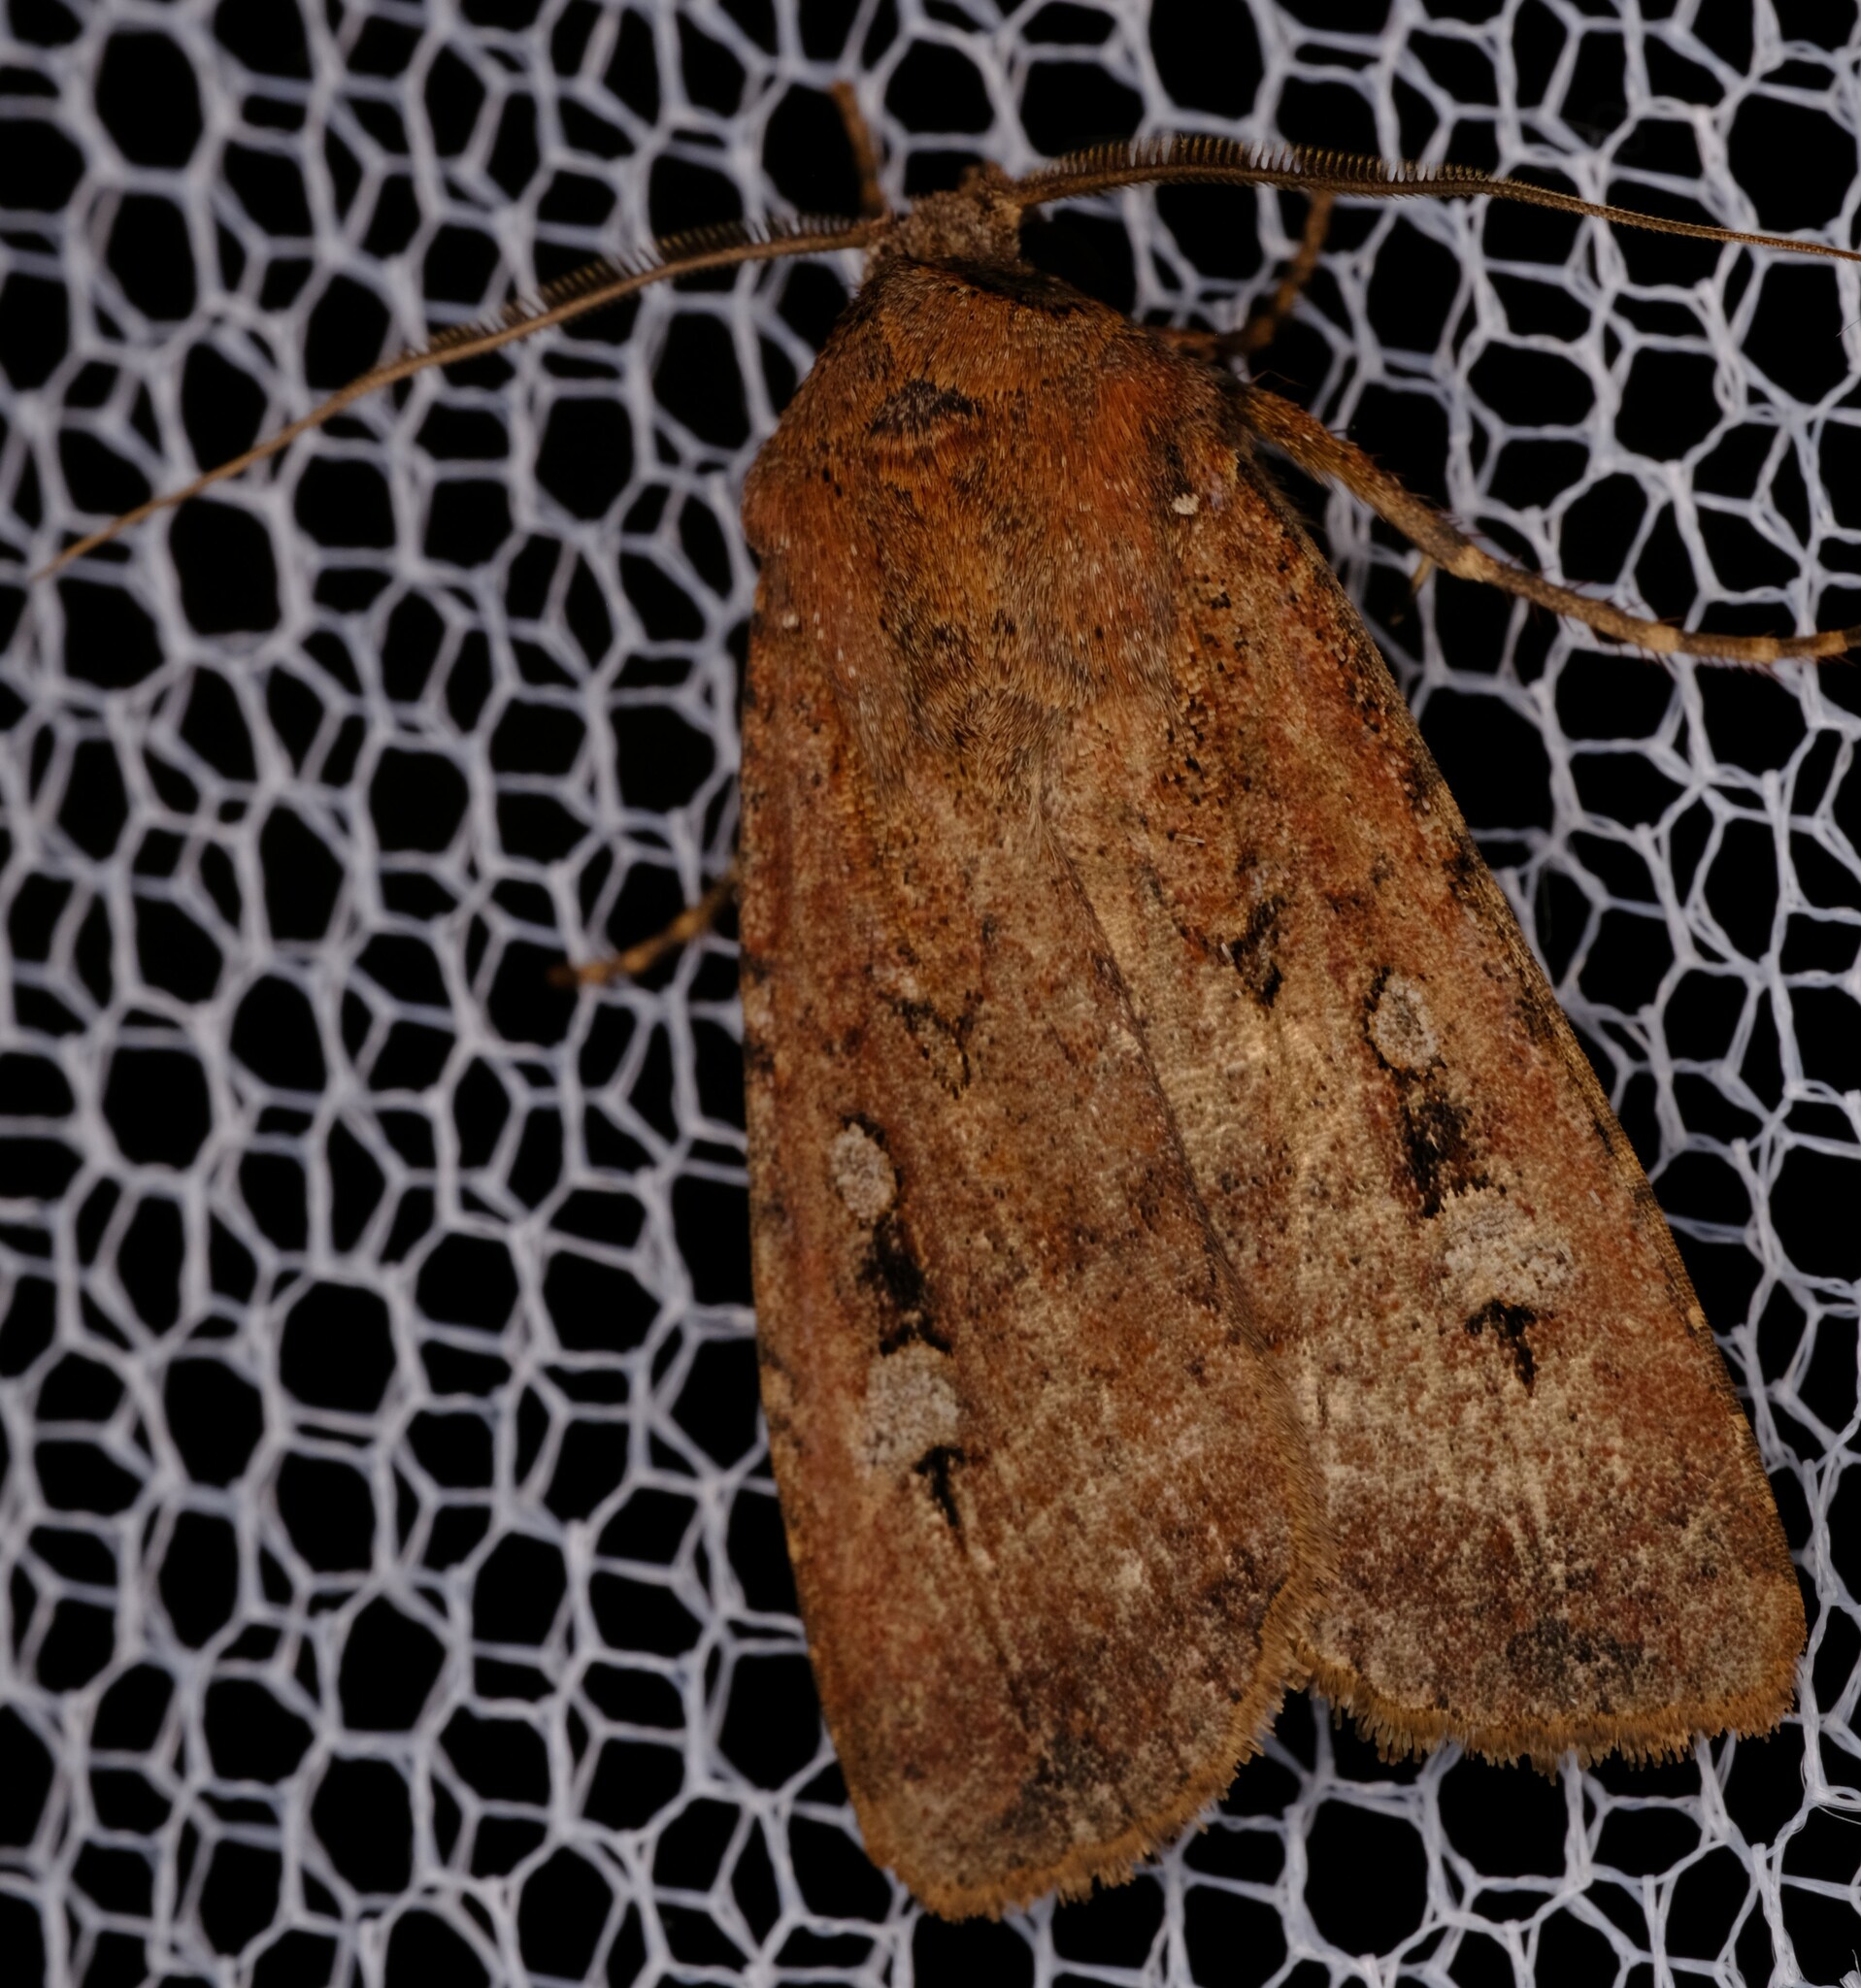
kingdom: Animalia
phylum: Arthropoda
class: Insecta
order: Lepidoptera
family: Noctuidae
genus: Agrotis
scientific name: Agrotis infusa
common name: Bogong moth
